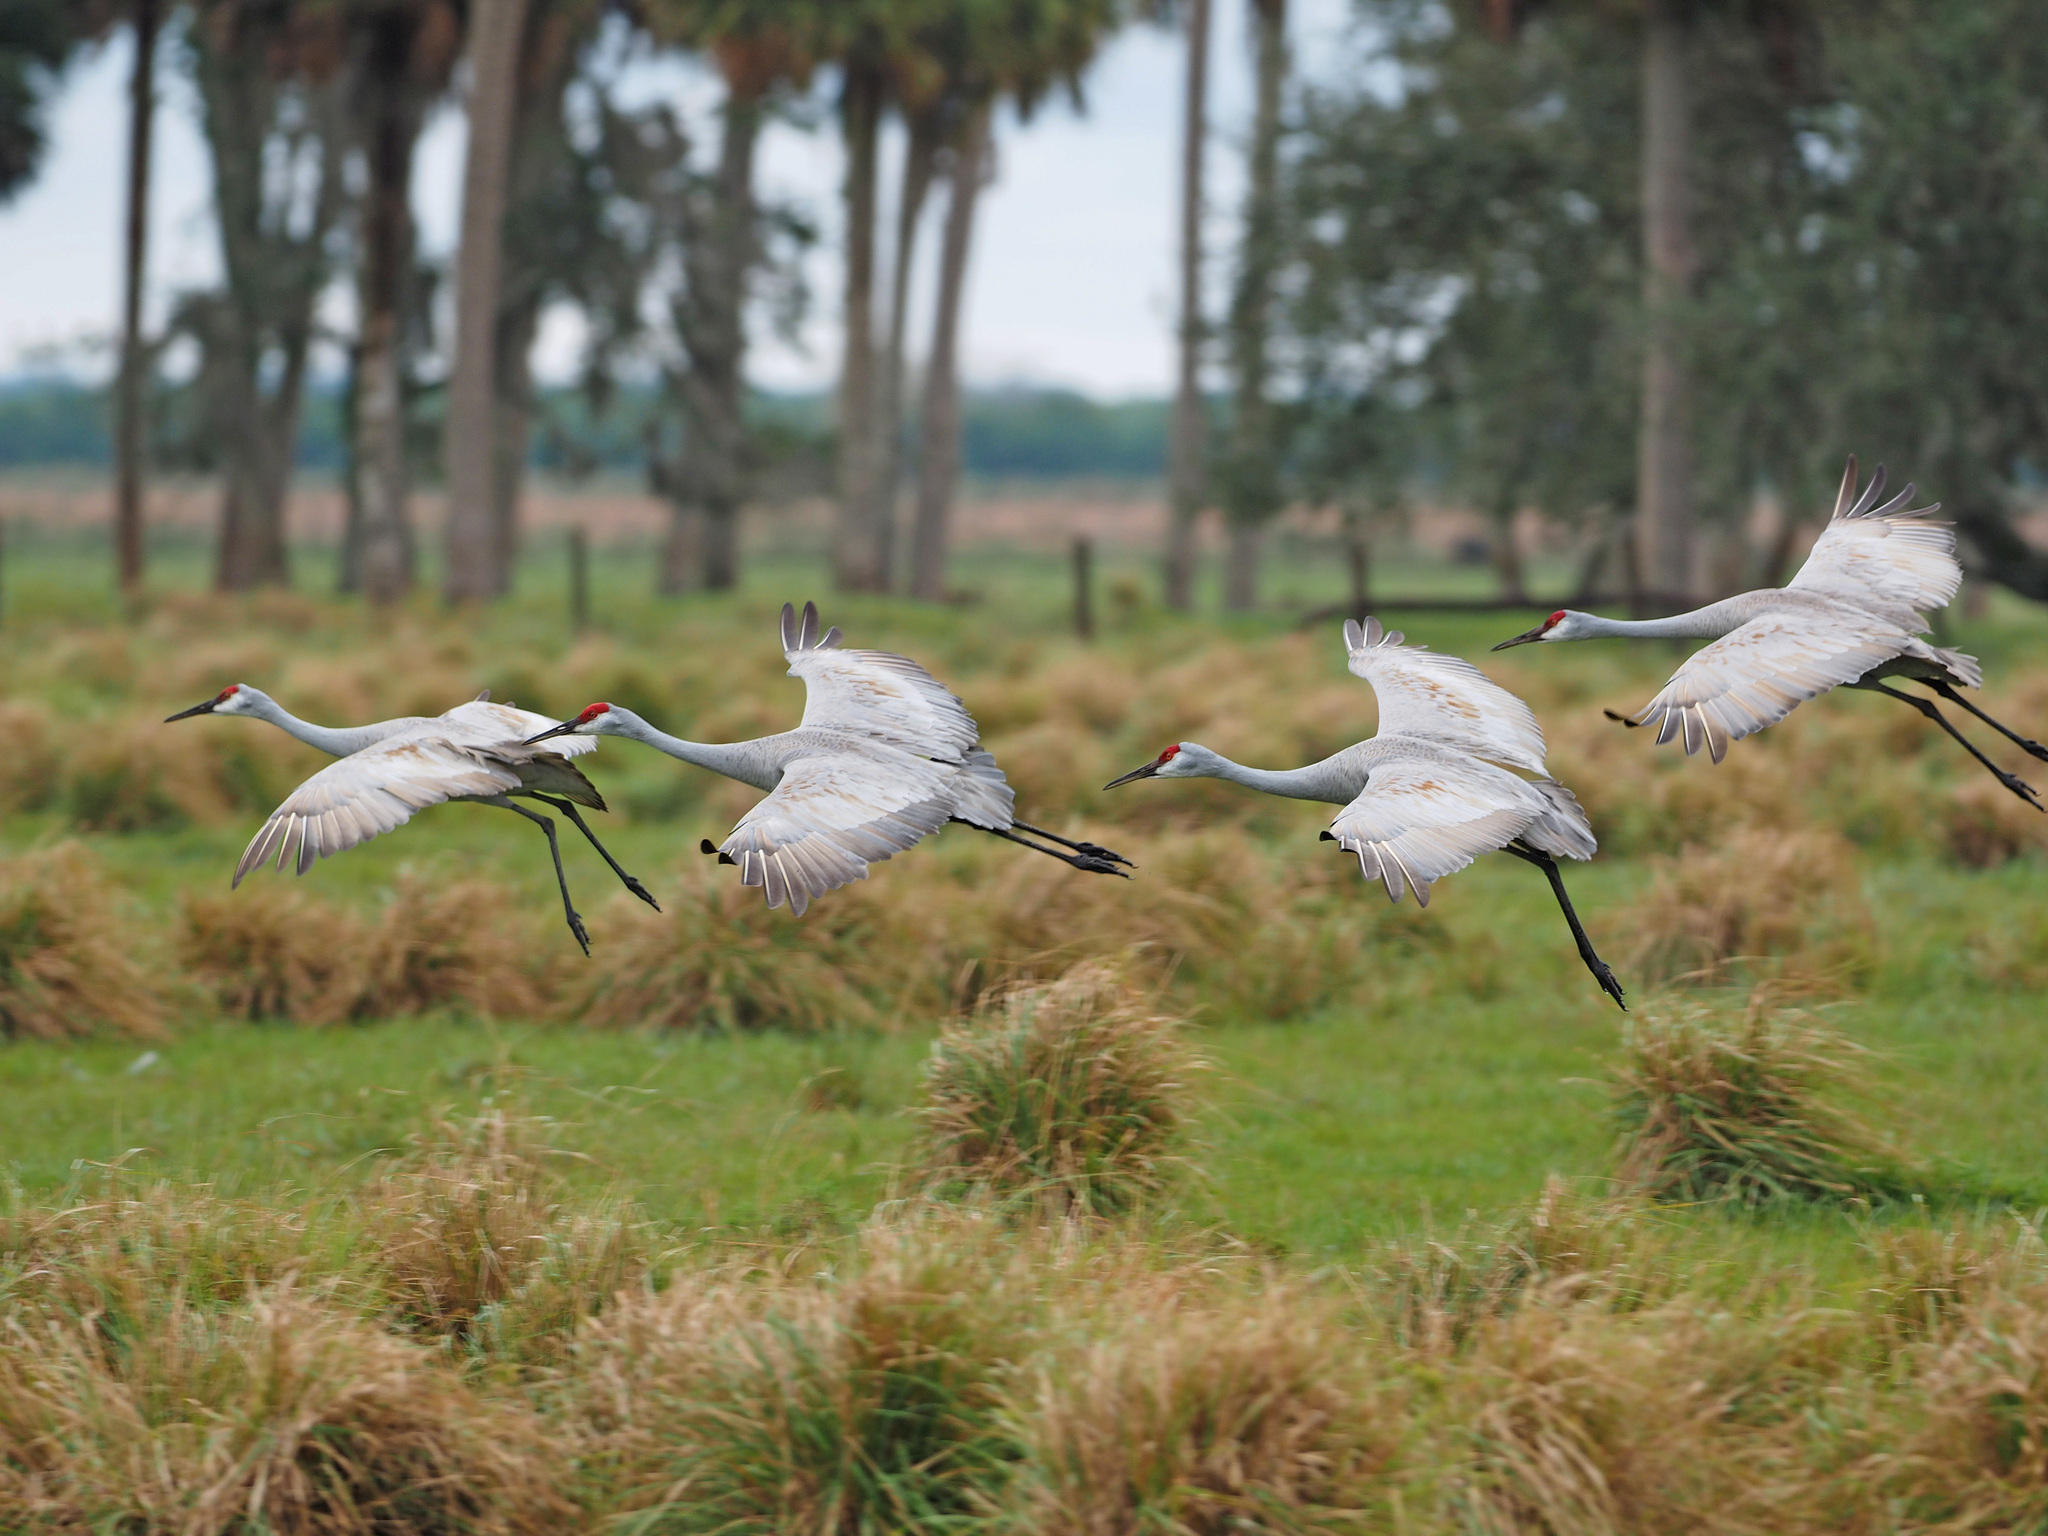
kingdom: Animalia
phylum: Chordata
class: Aves
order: Gruiformes
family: Gruidae
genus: Grus
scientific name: Grus canadensis
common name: Sandhill crane
